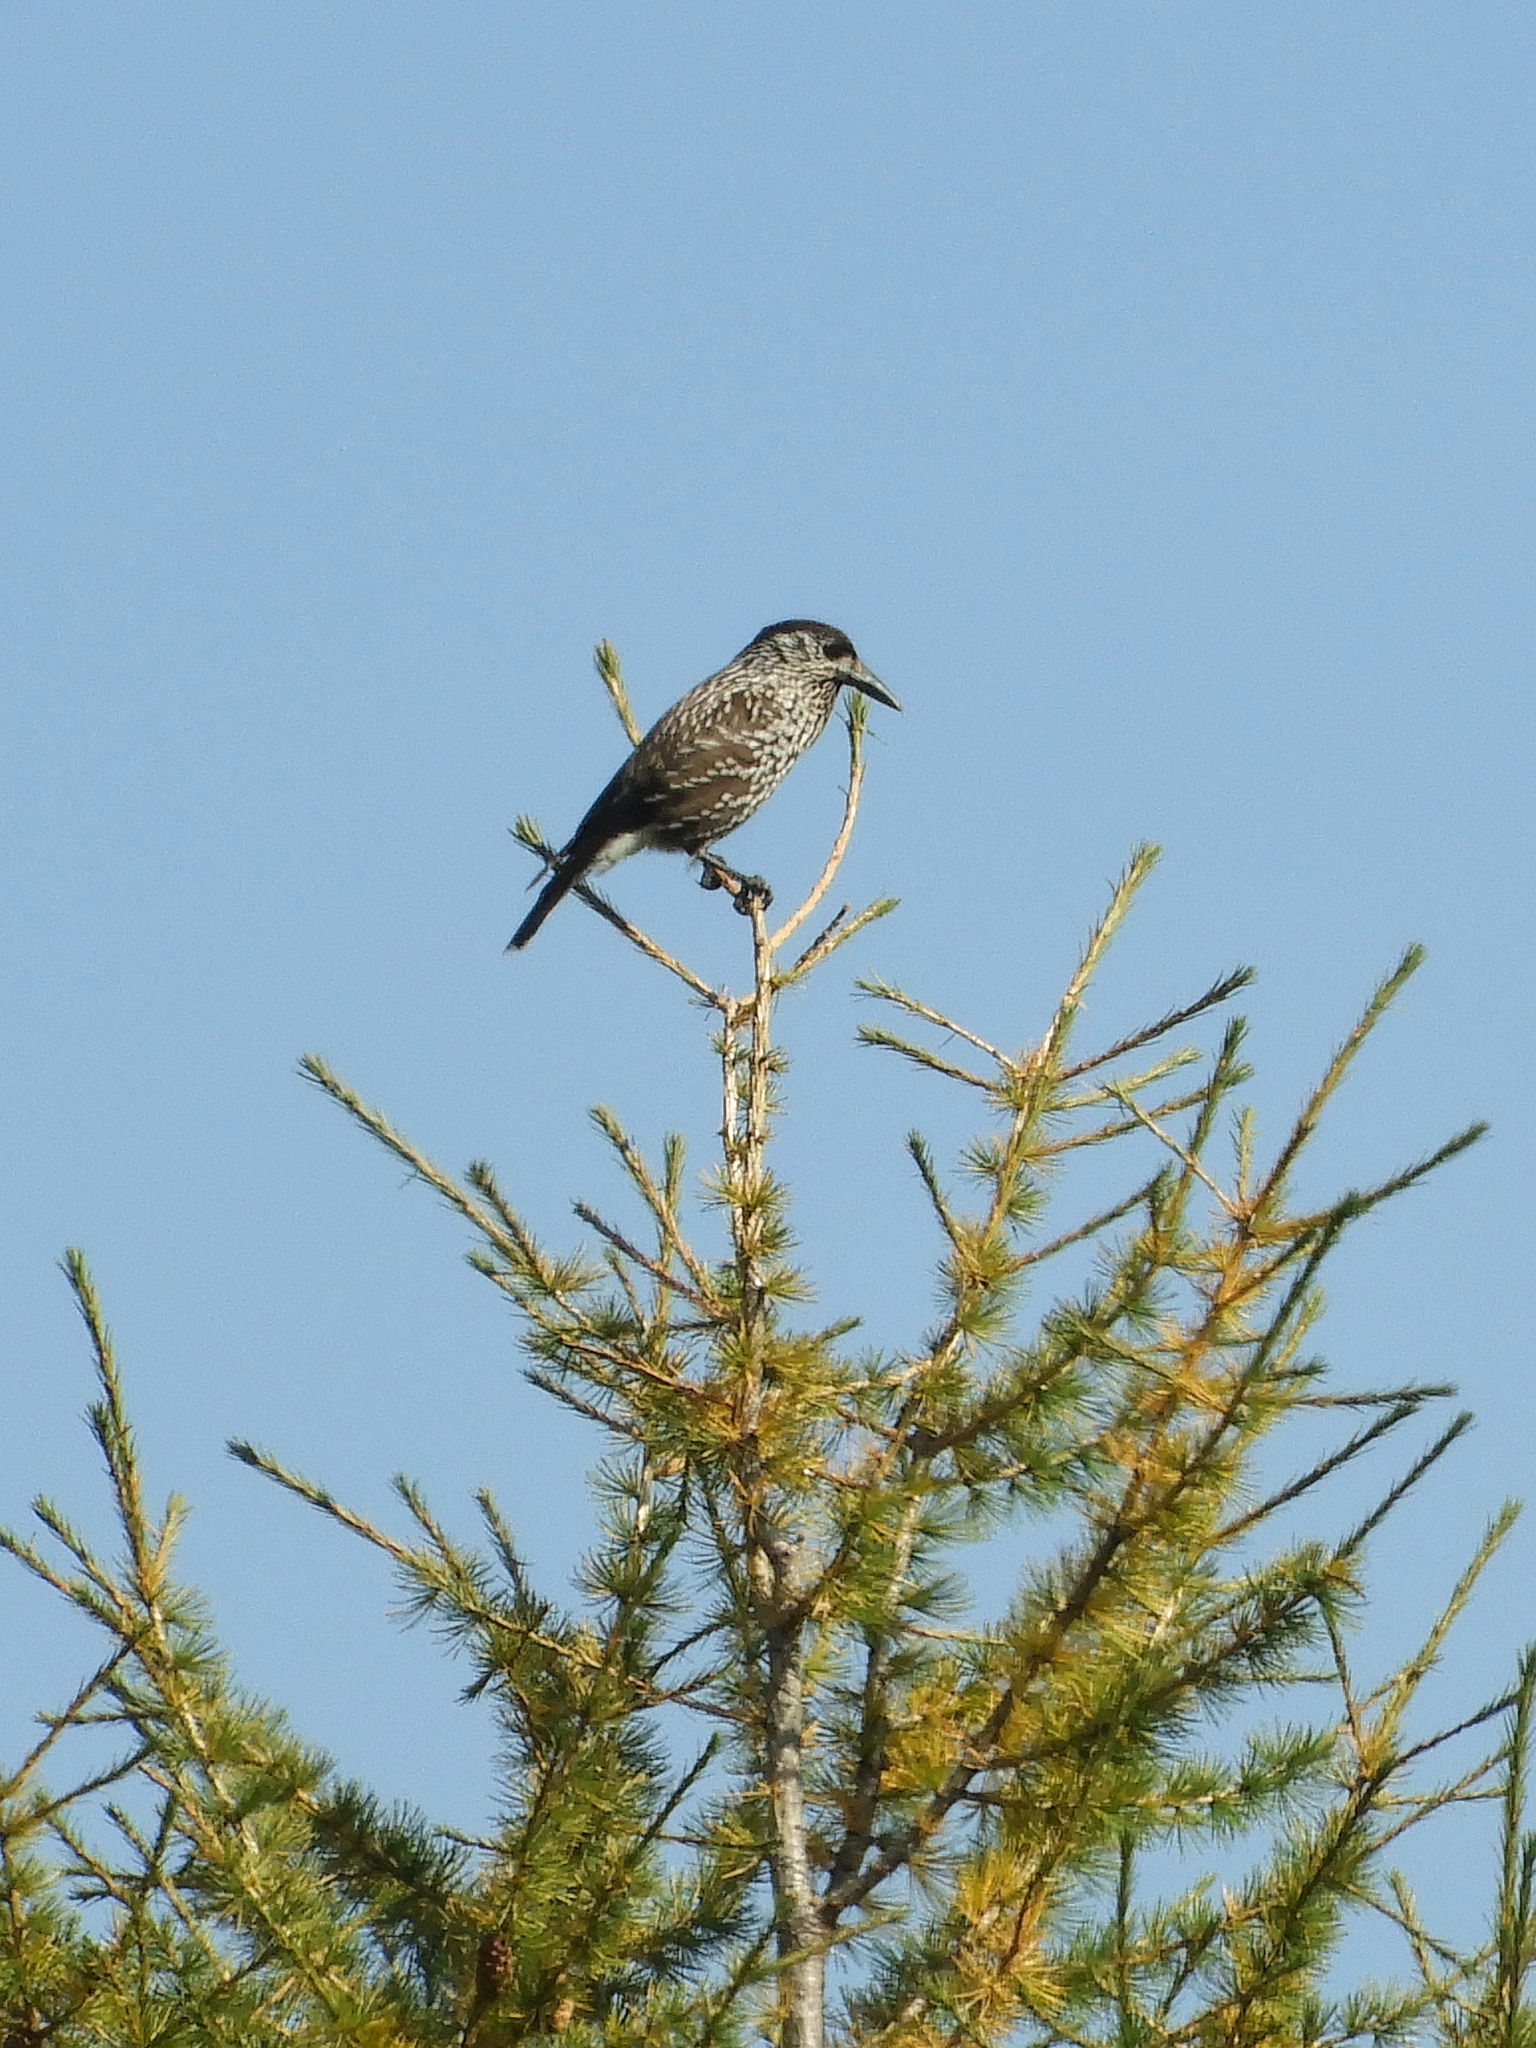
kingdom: Animalia
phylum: Chordata
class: Aves
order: Passeriformes
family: Corvidae
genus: Nucifraga
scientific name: Nucifraga caryocatactes
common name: Spotted nutcracker
